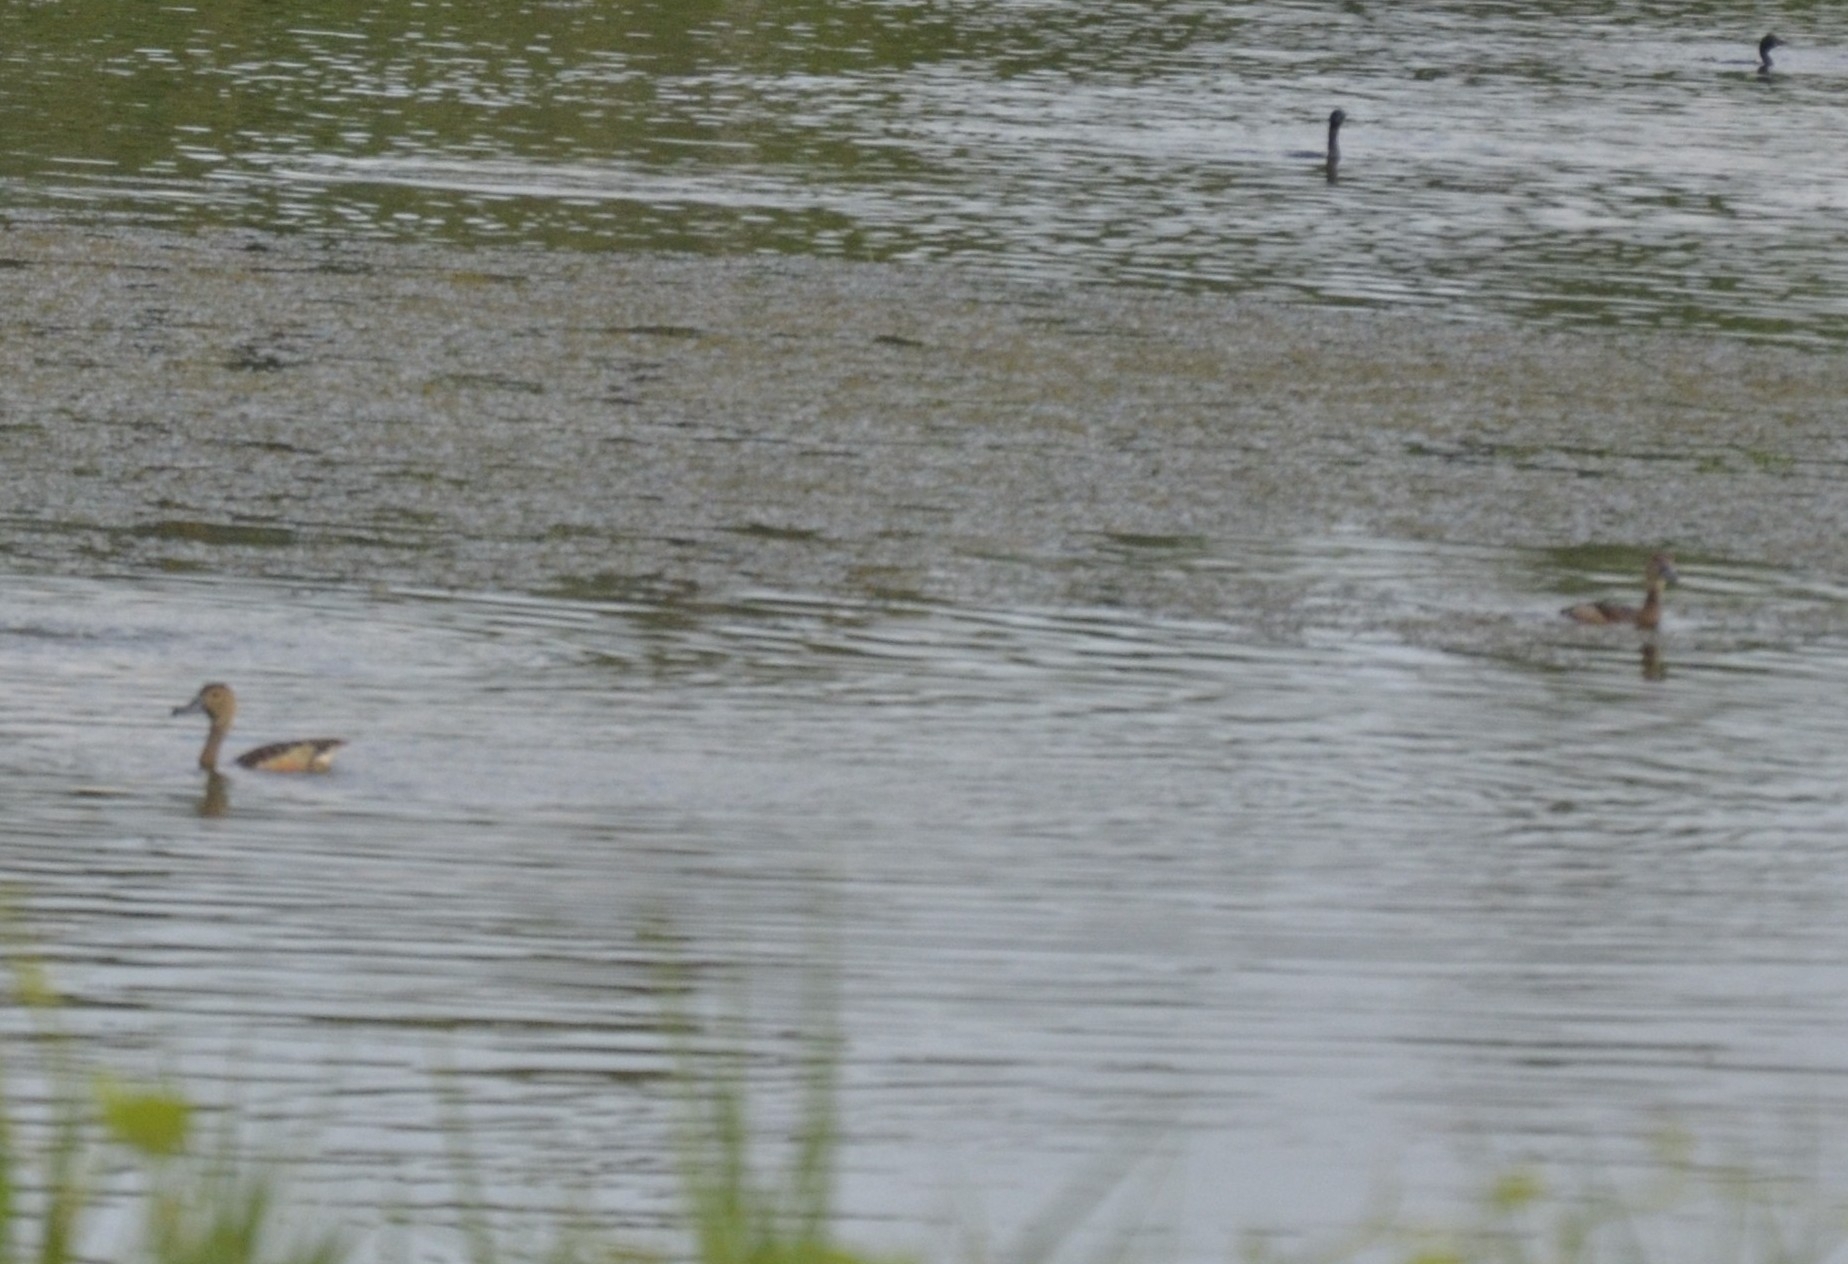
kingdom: Animalia
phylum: Chordata
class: Aves
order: Anseriformes
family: Anatidae
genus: Dendrocygna
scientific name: Dendrocygna javanica
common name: Lesser whistling-duck
